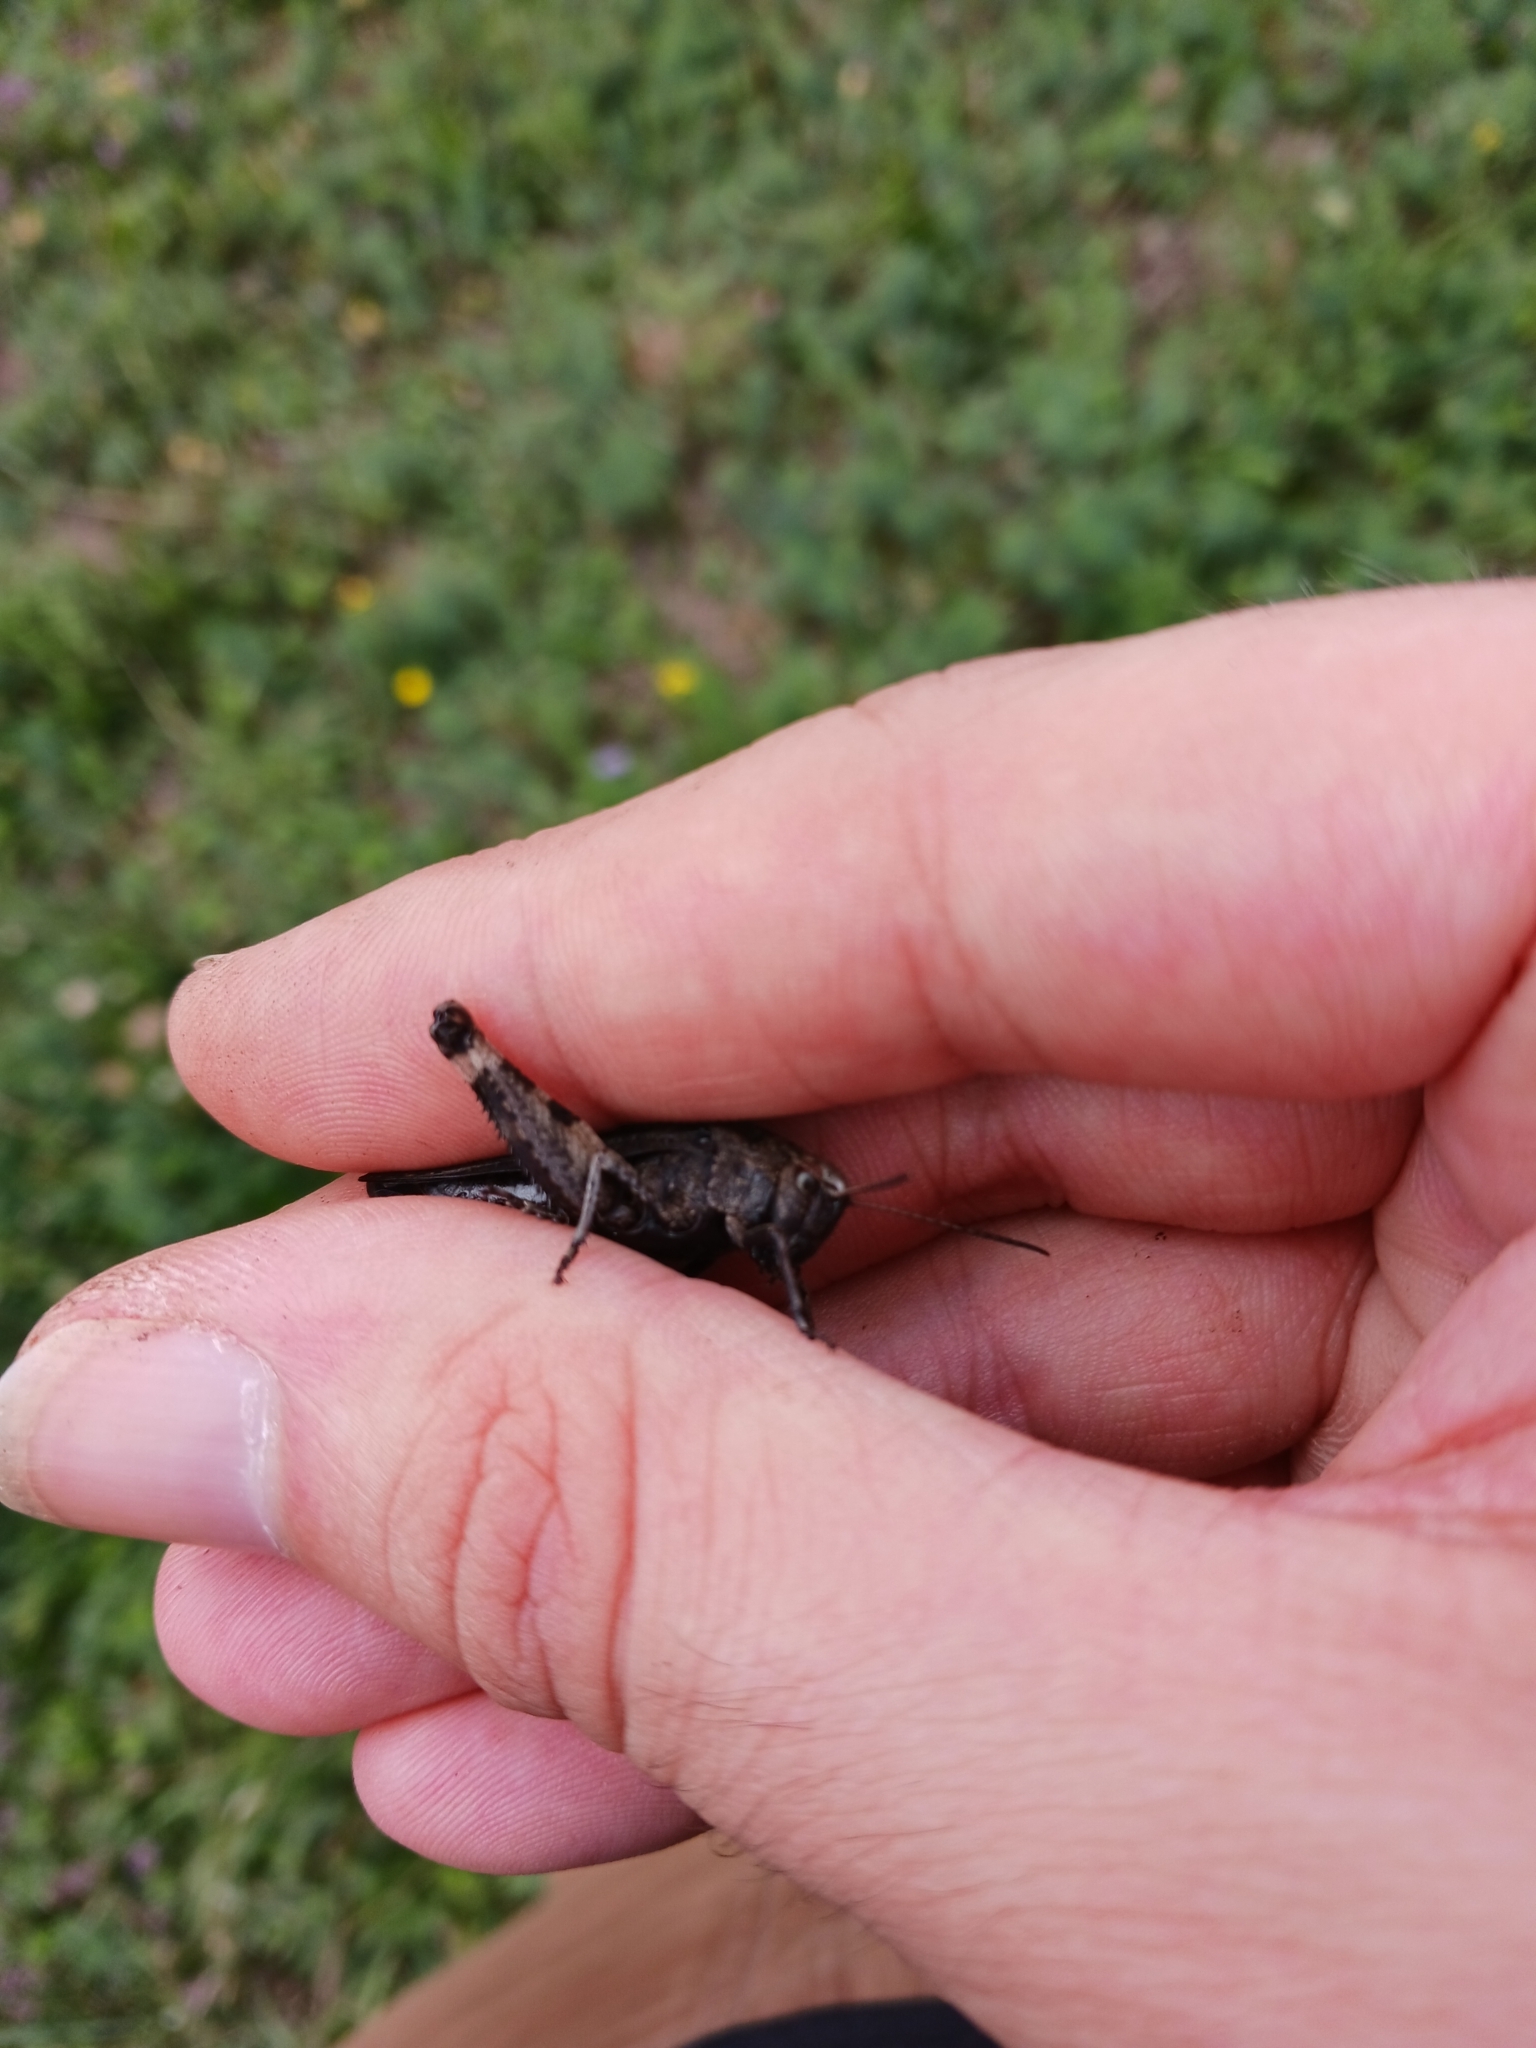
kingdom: Animalia
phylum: Arthropoda
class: Insecta
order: Orthoptera
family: Acrididae
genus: Psophus
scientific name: Psophus stridulus
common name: Rattle grasshopper
